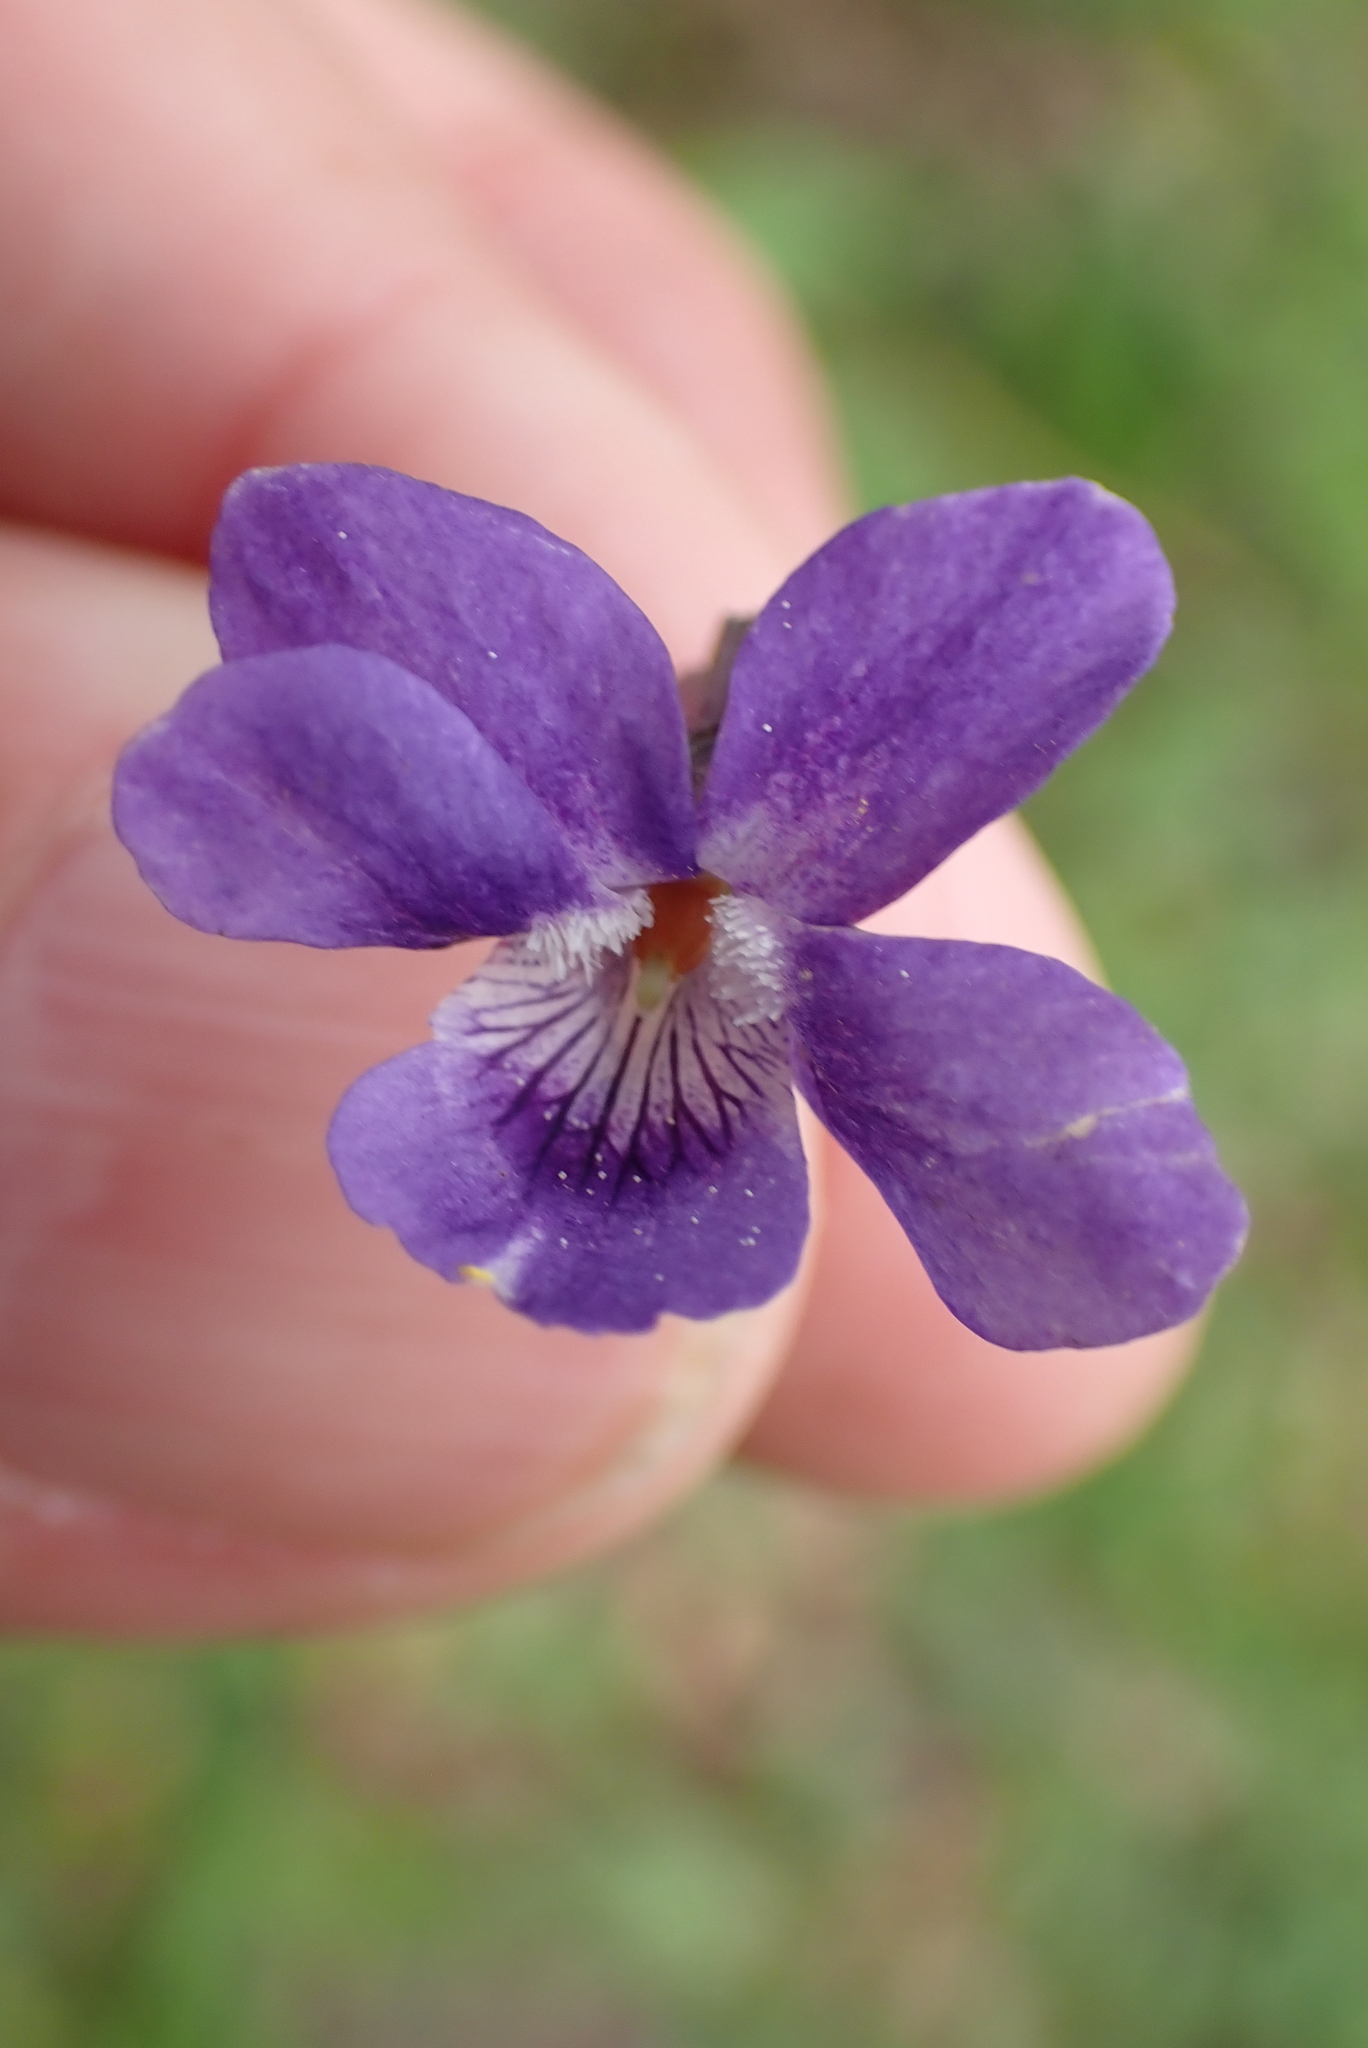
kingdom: Plantae
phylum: Tracheophyta
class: Magnoliopsida
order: Malpighiales
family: Violaceae
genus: Viola
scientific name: Viola riviniana
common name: Common dog-violet
